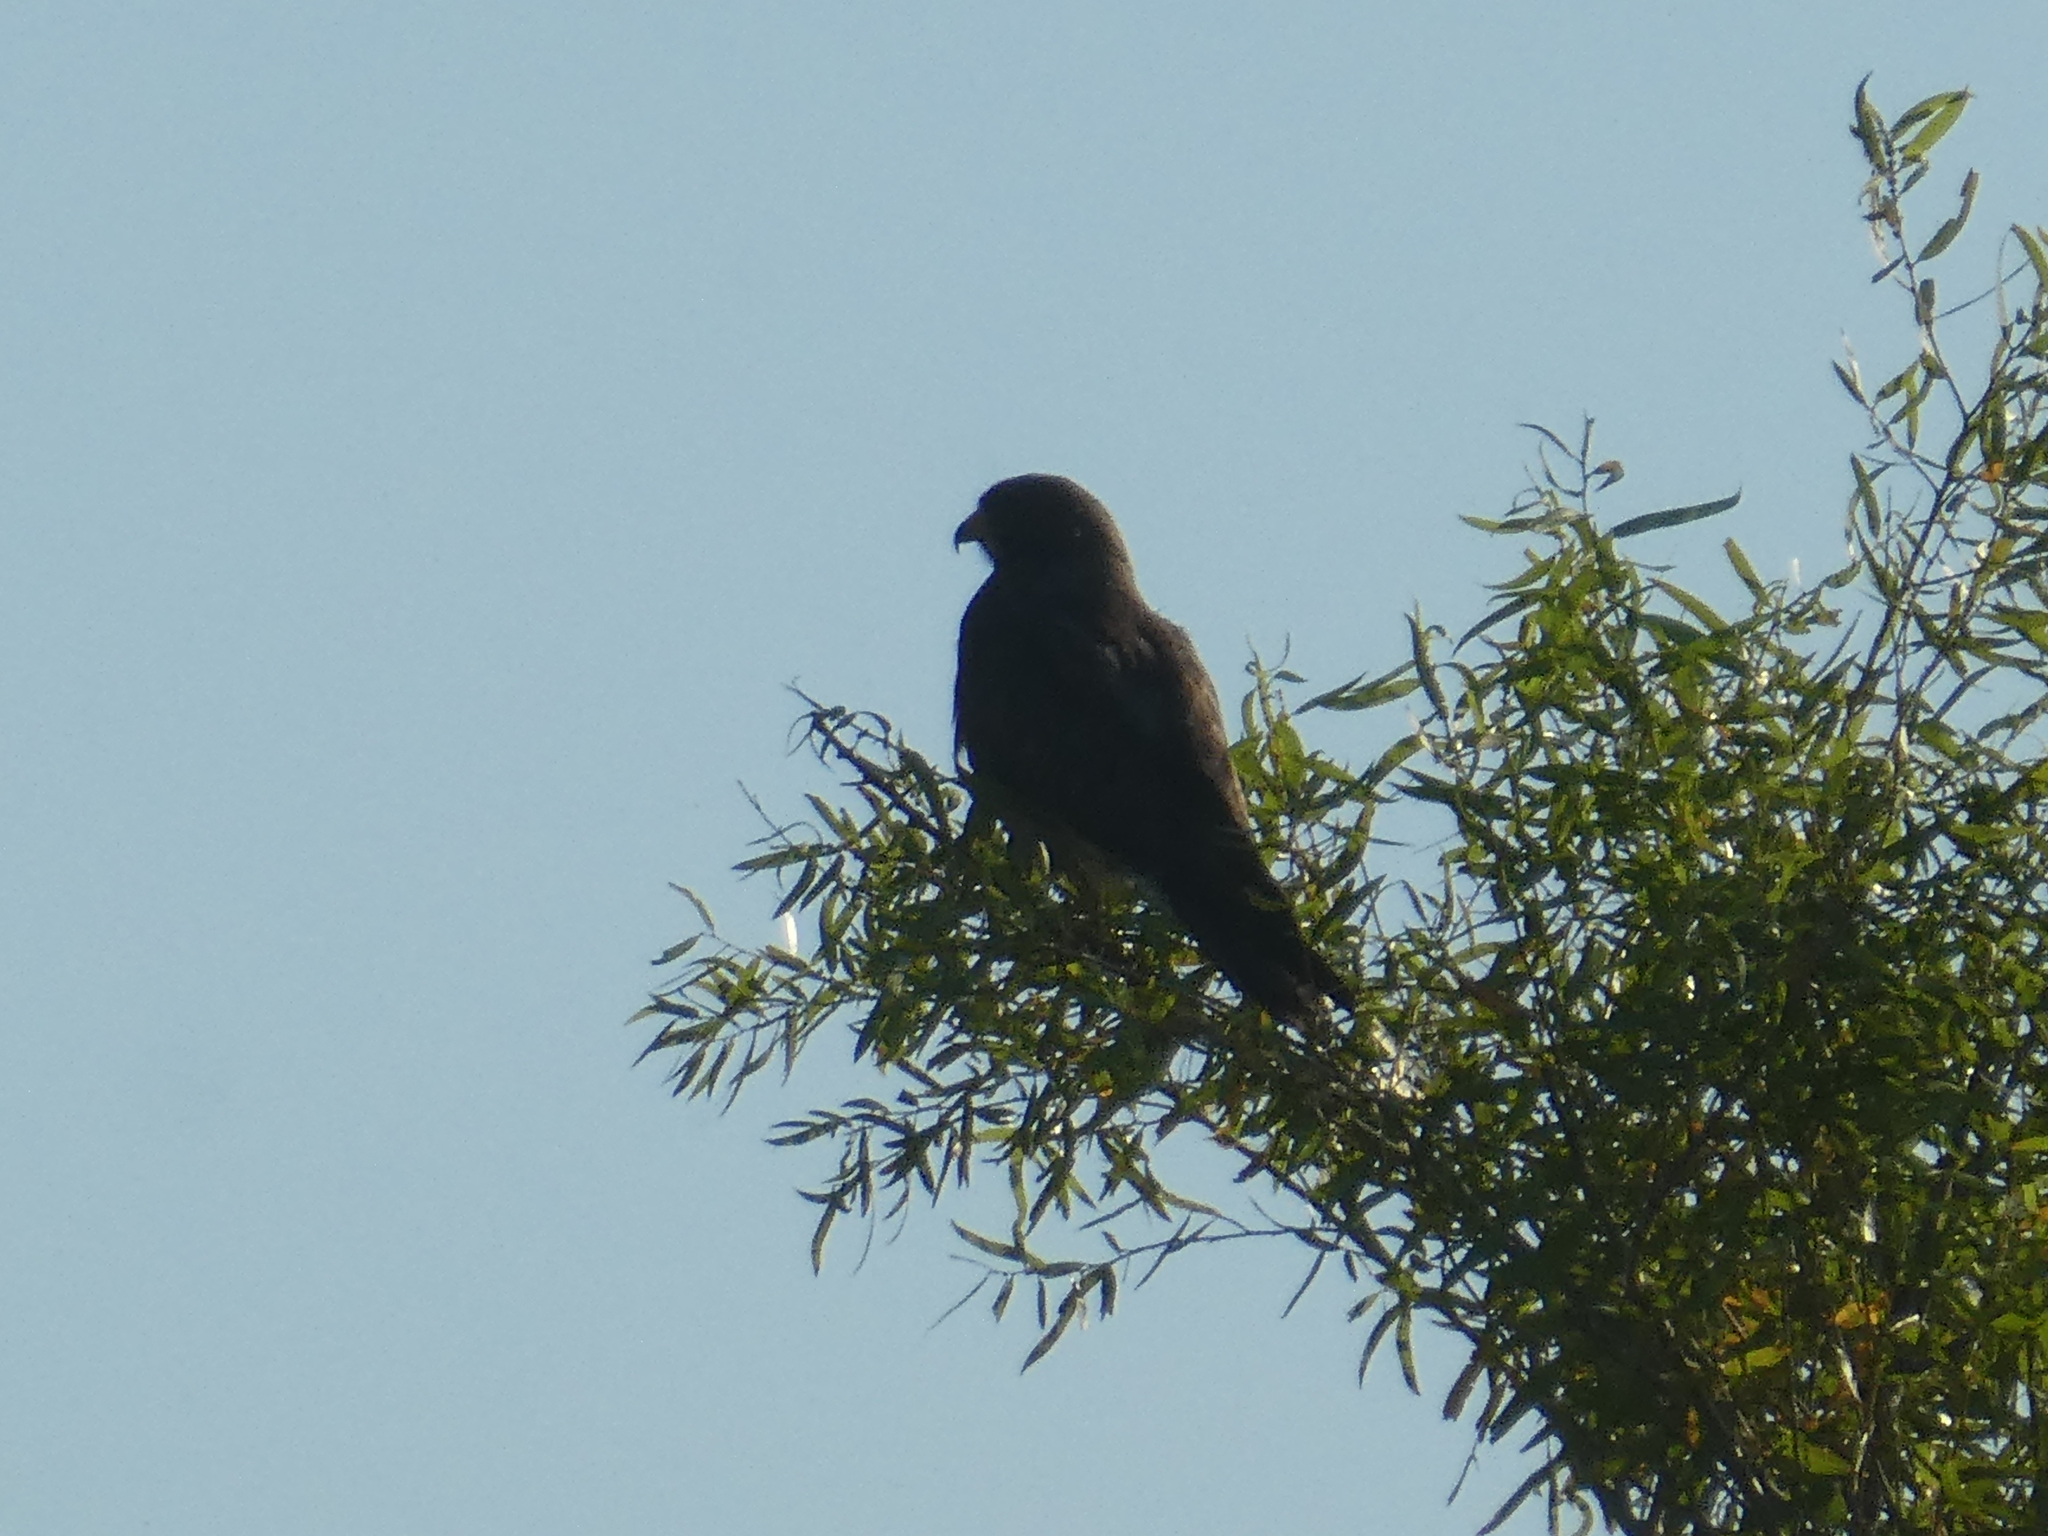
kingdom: Animalia
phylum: Chordata
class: Aves
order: Accipitriformes
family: Accipitridae
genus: Buteo
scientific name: Buteo swainsoni
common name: Swainson's hawk
